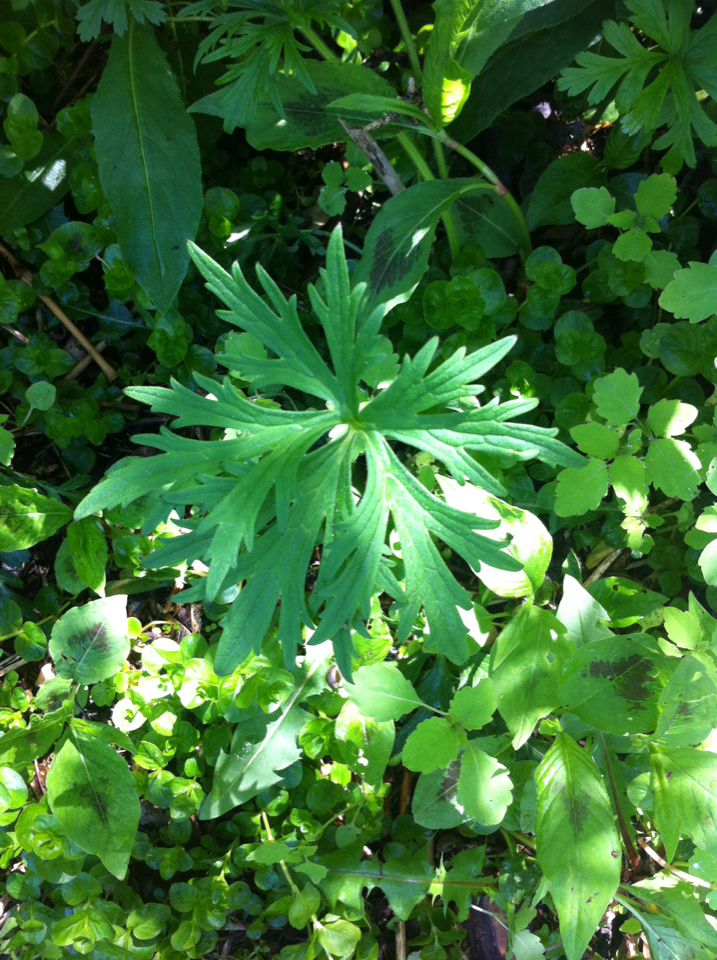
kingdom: Plantae
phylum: Tracheophyta
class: Magnoliopsida
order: Ranunculales
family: Ranunculaceae
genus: Ranunculus
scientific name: Ranunculus acris
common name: Meadow buttercup
